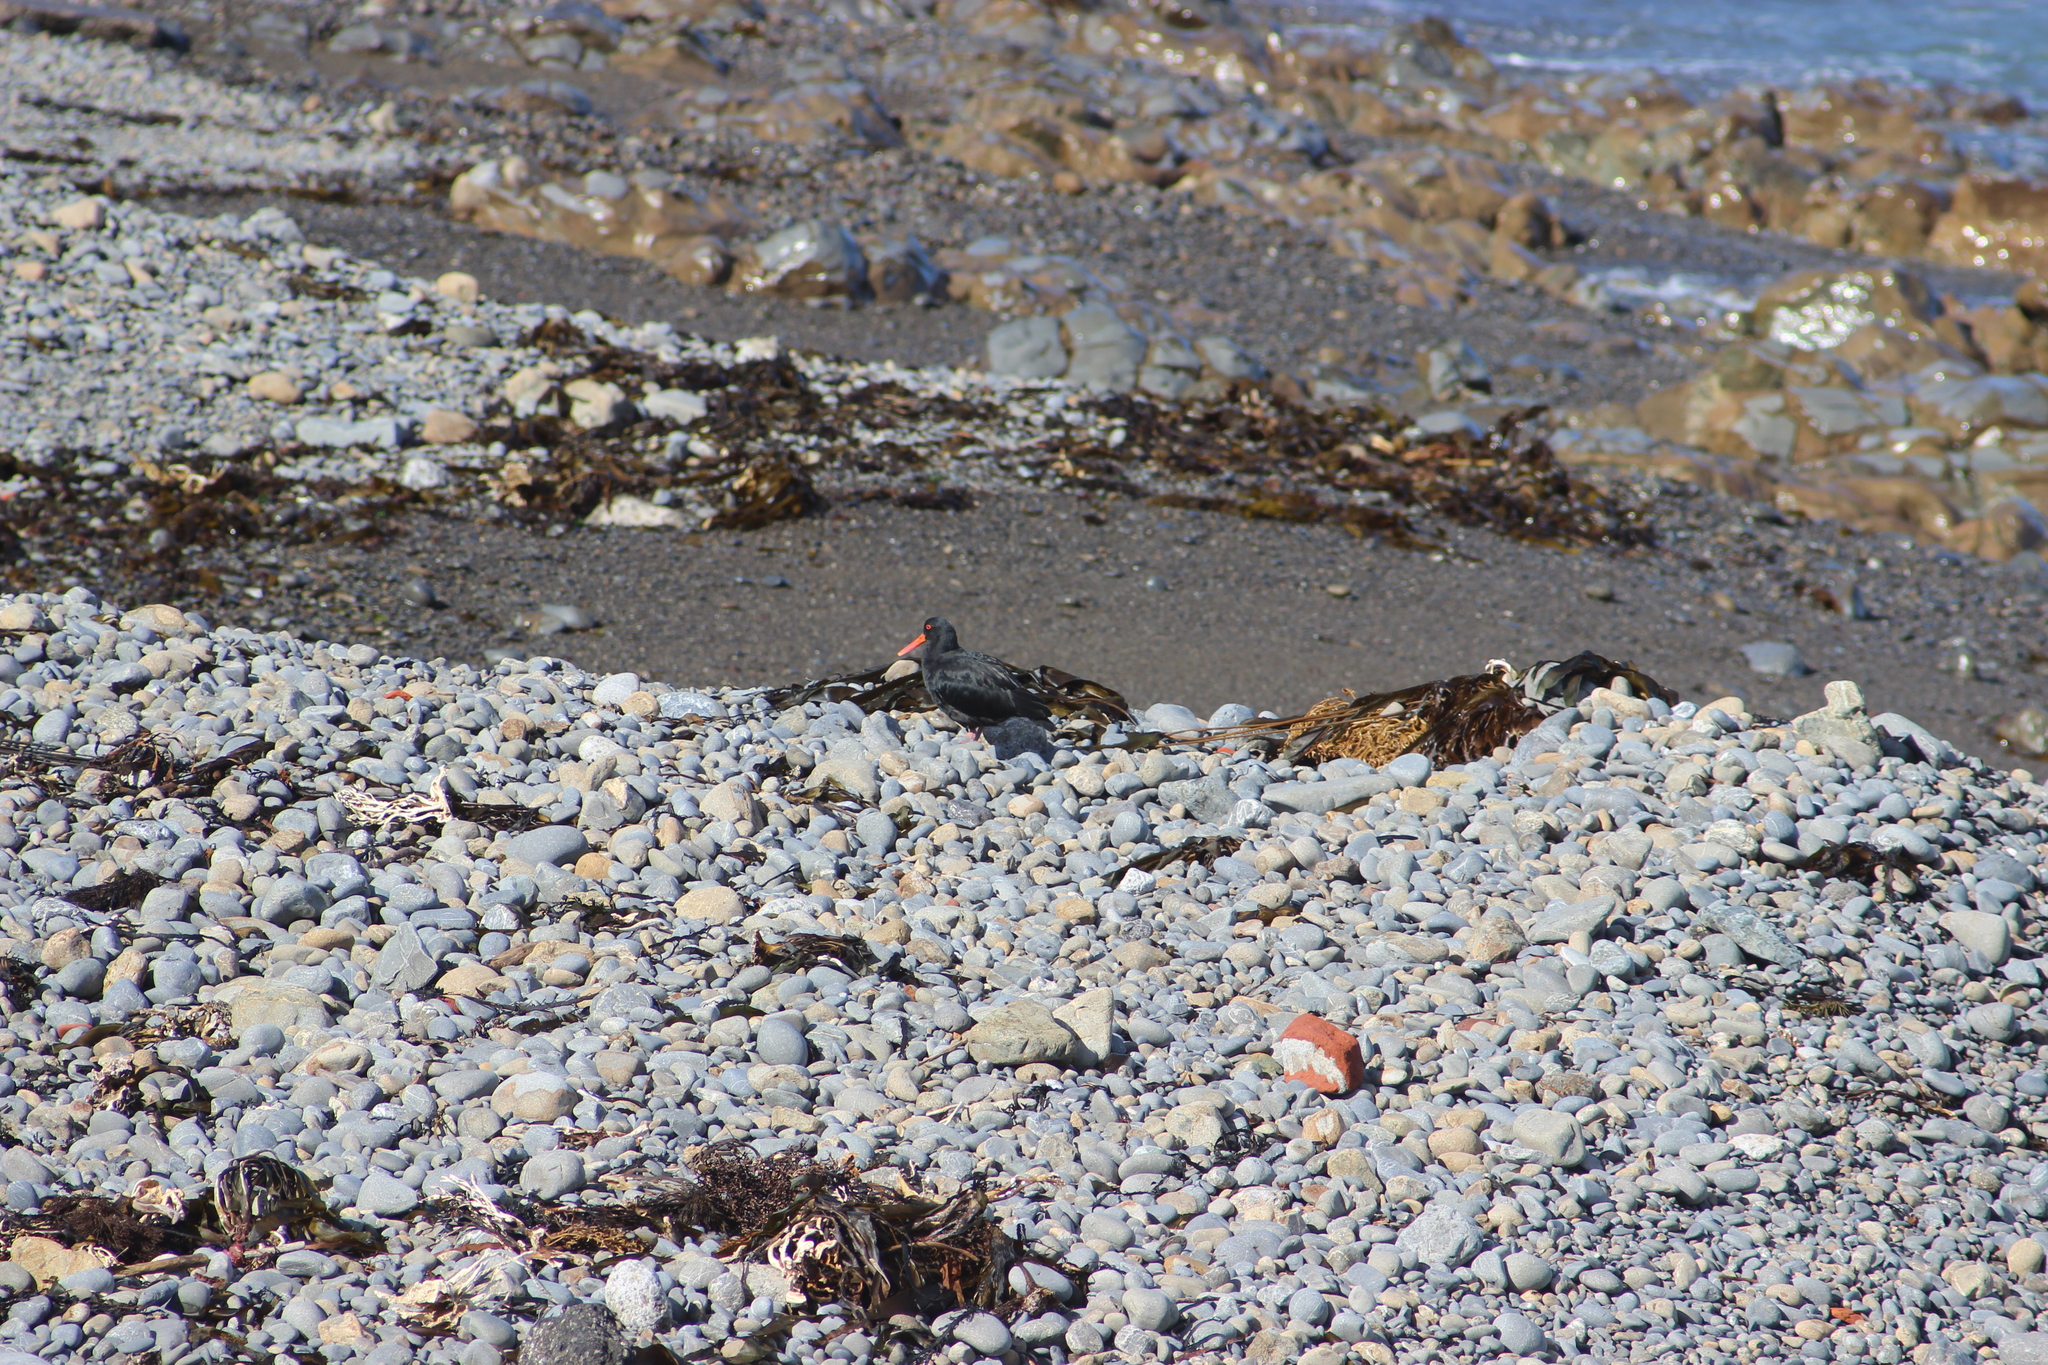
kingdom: Animalia
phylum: Chordata
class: Aves
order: Charadriiformes
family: Haematopodidae
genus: Haematopus
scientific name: Haematopus unicolor
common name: Variable oystercatcher
